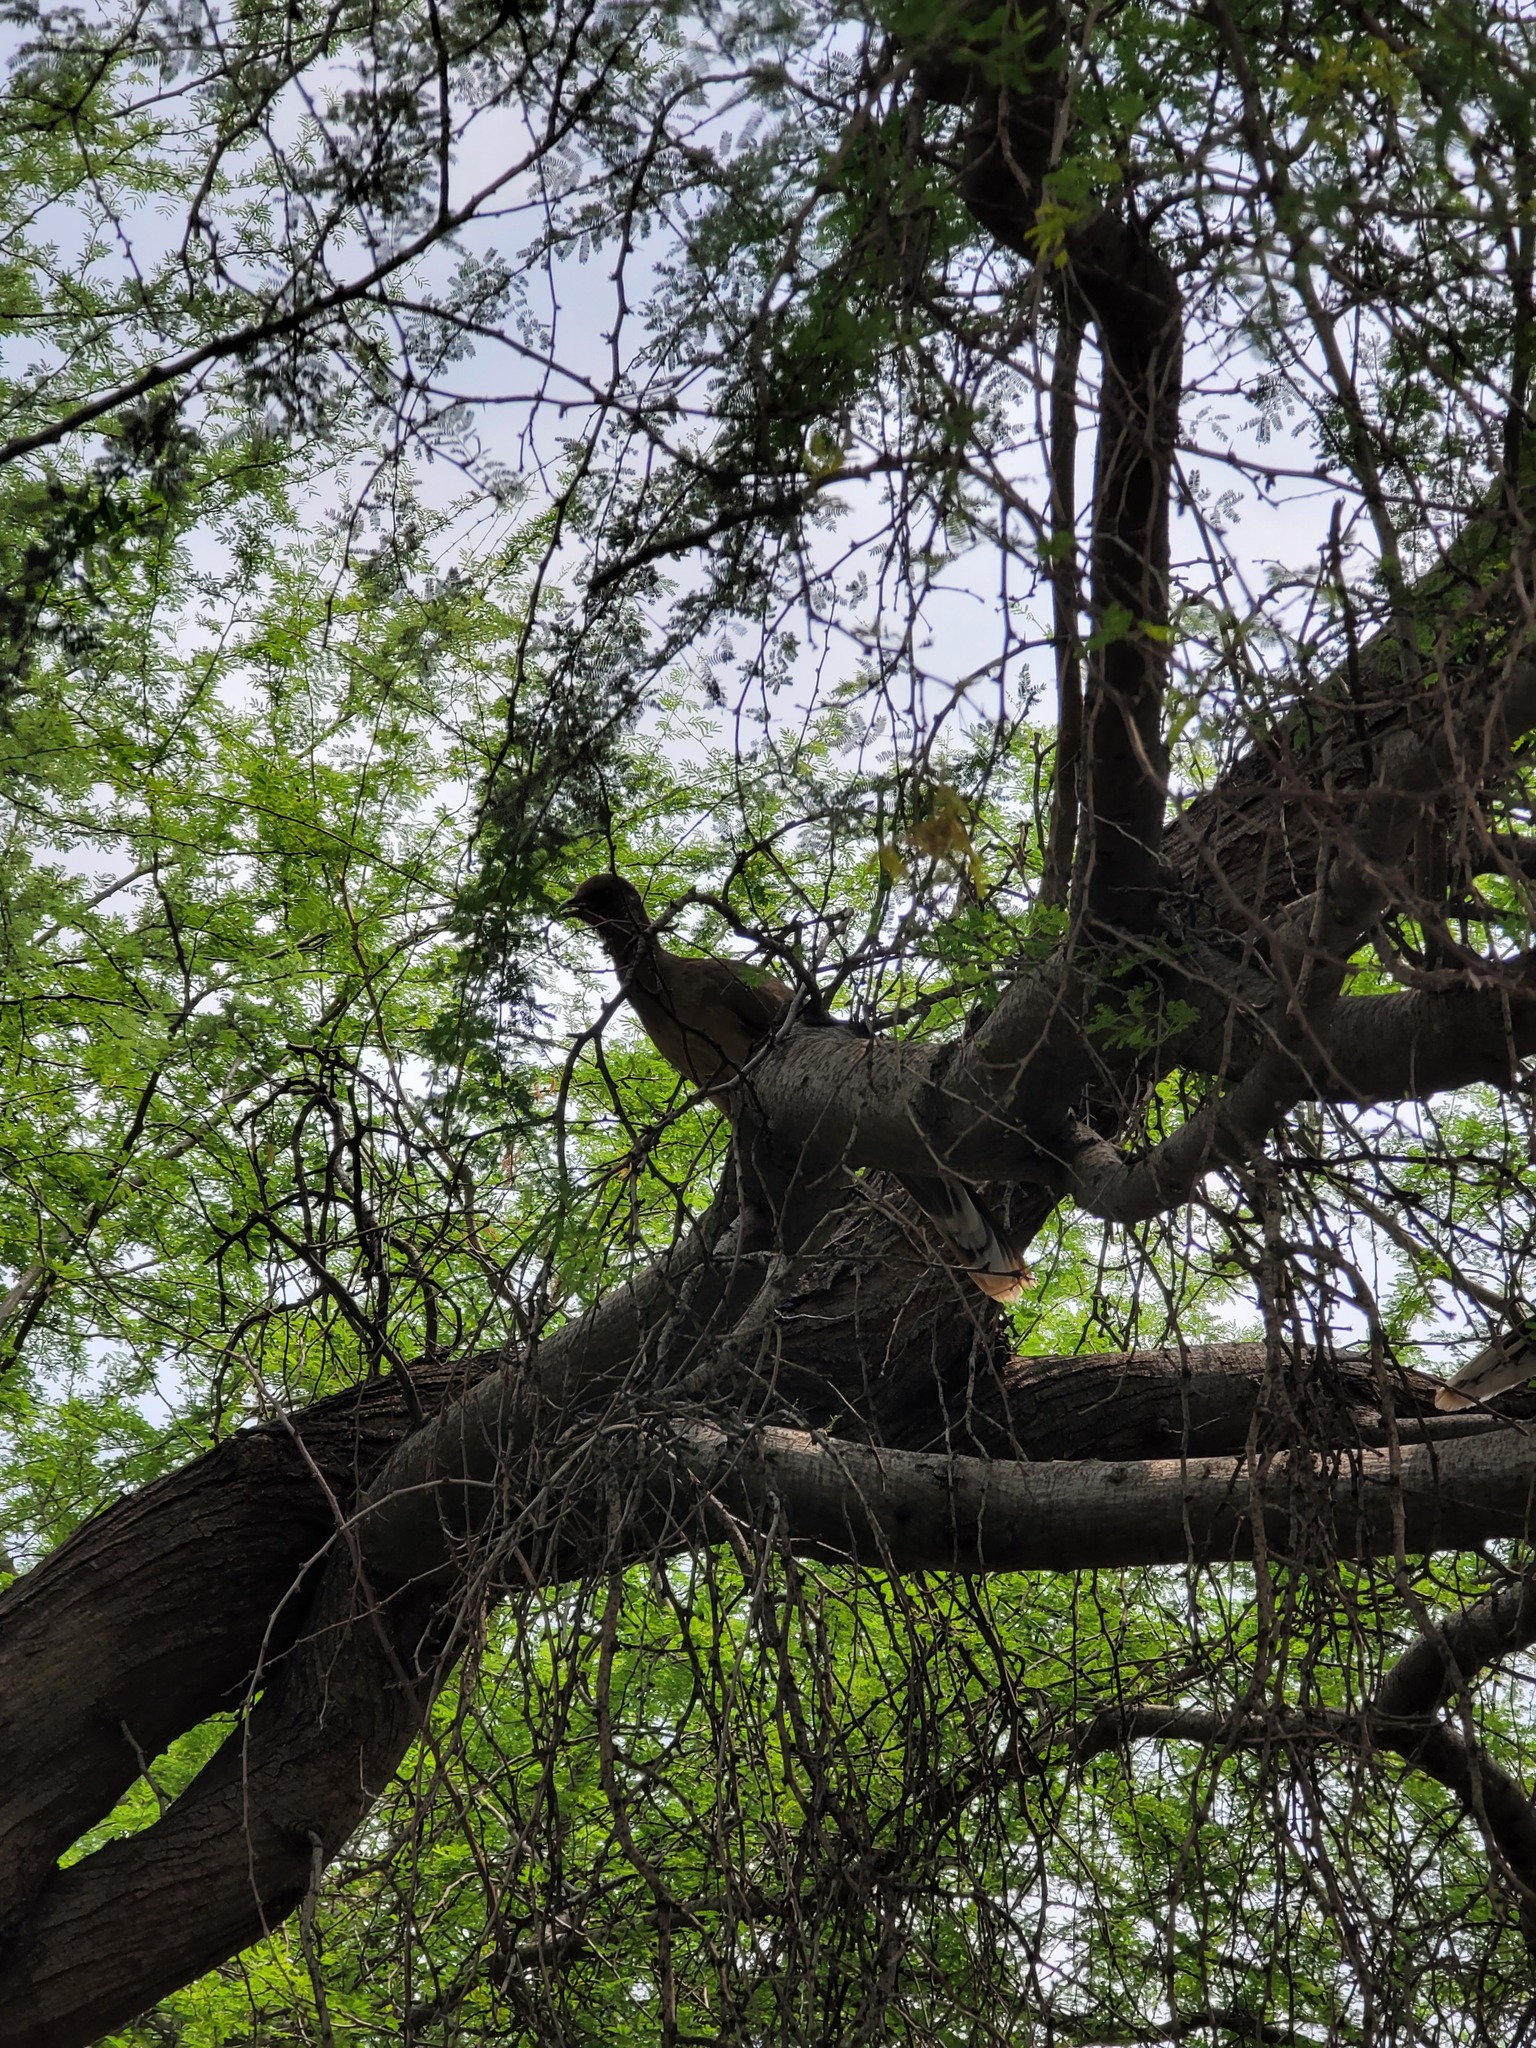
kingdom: Animalia
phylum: Chordata
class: Aves
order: Galliformes
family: Cracidae
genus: Ortalis
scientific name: Ortalis vetula
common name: Plain chachalaca
